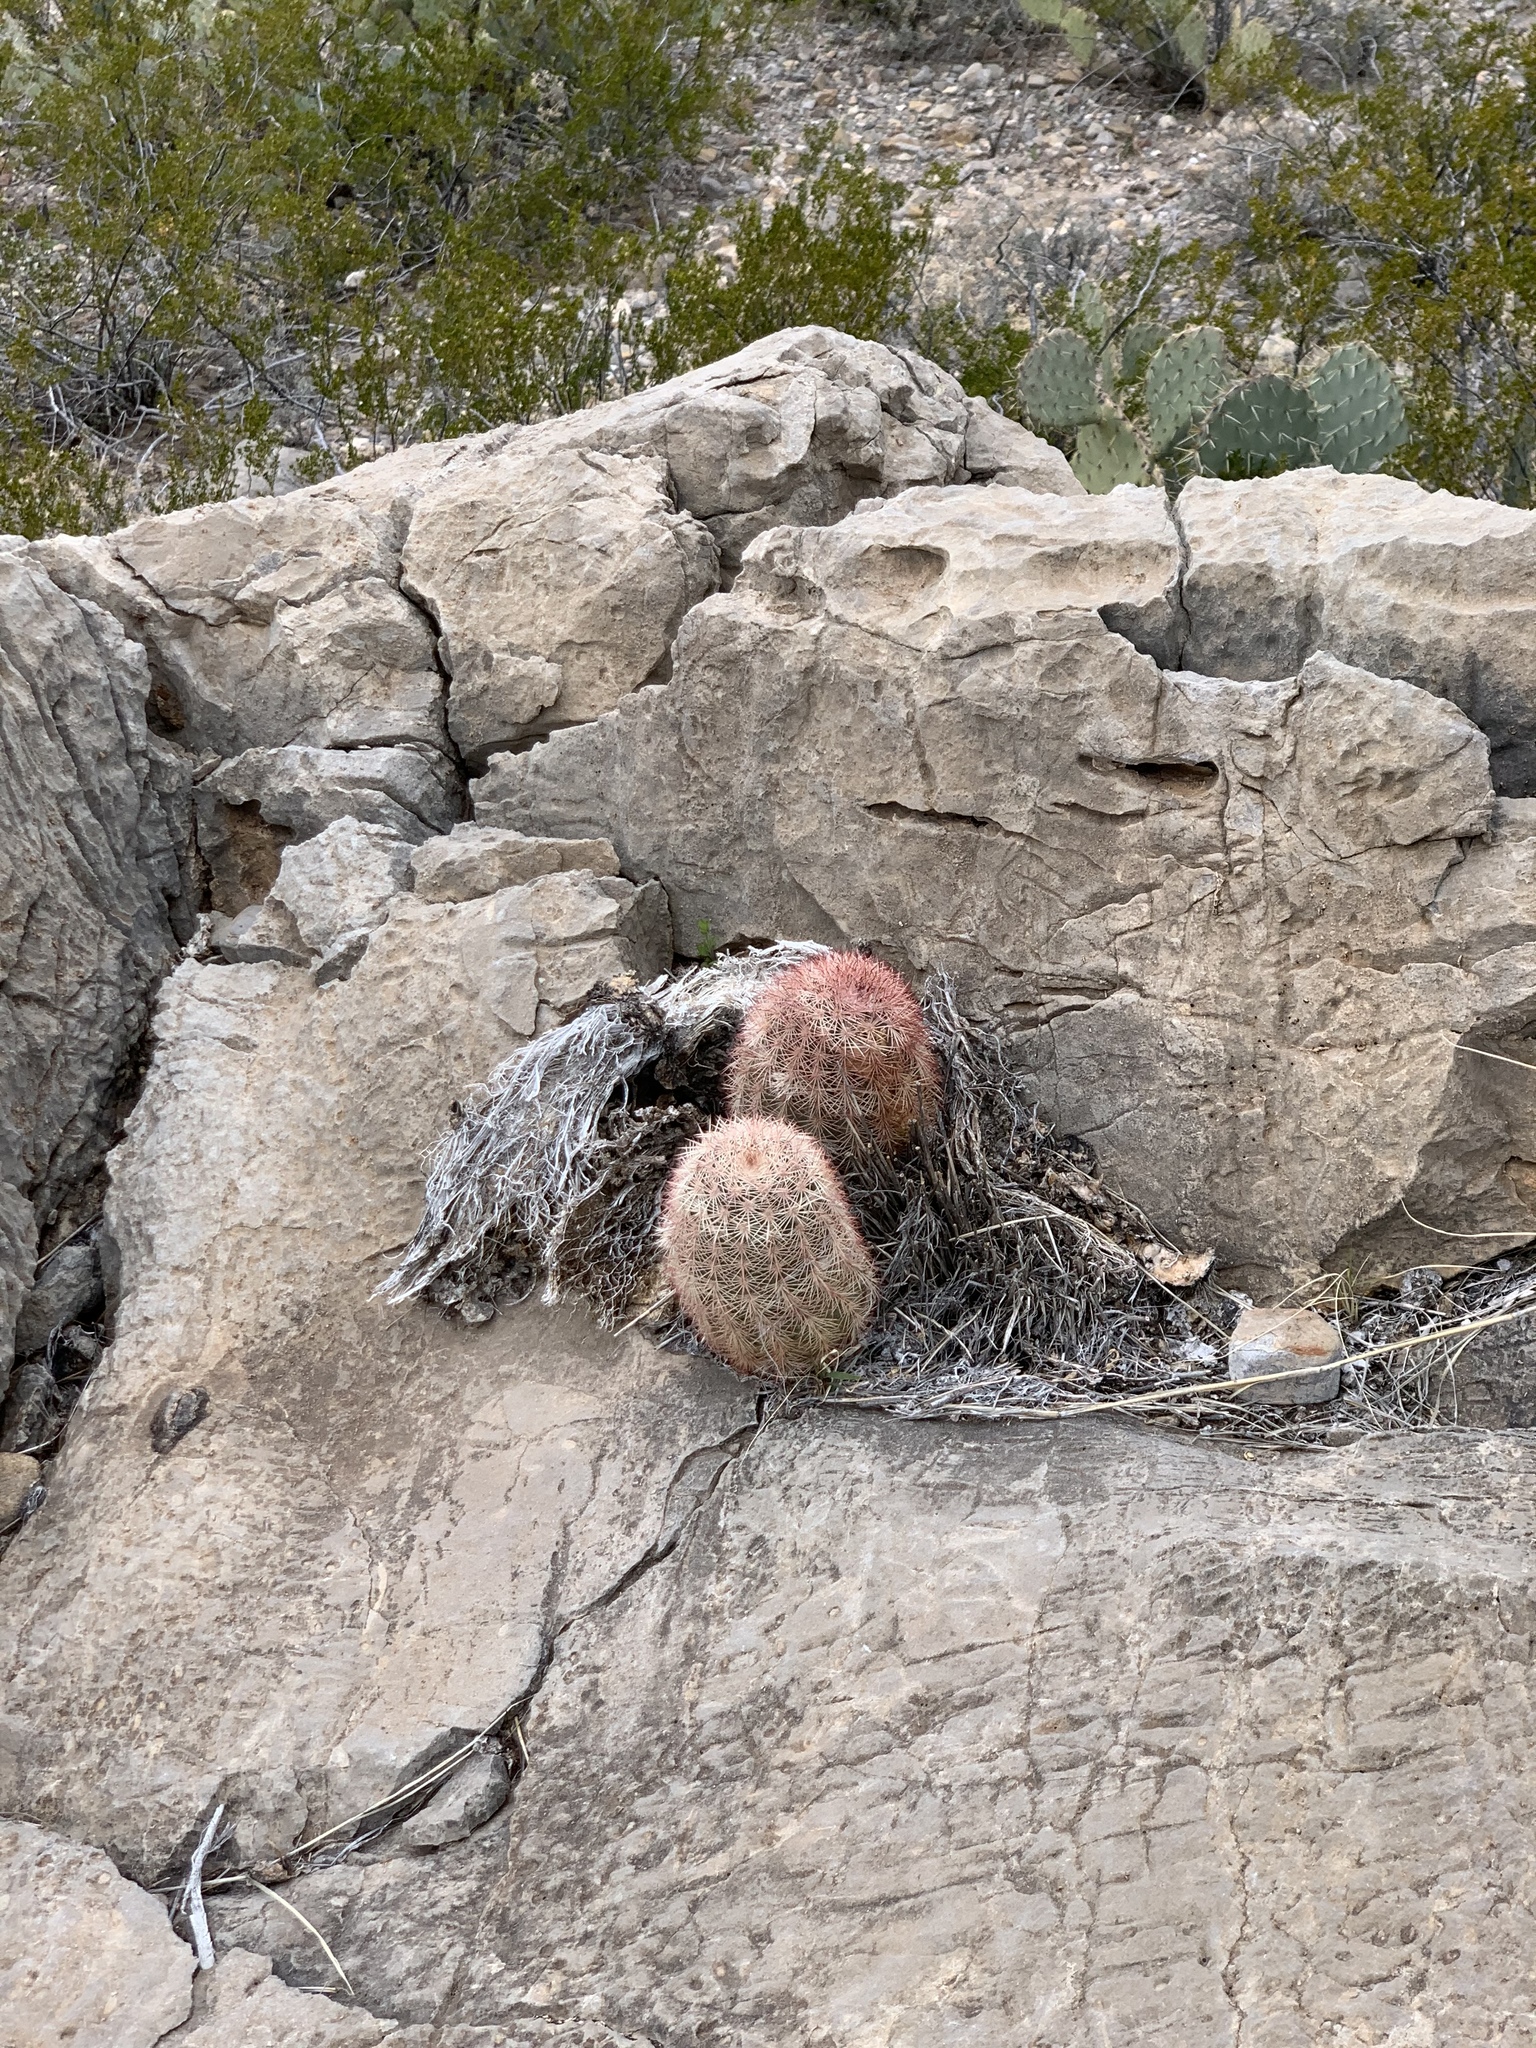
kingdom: Plantae
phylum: Tracheophyta
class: Magnoliopsida
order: Caryophyllales
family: Cactaceae
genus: Echinocereus
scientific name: Echinocereus dasyacanthus
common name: Spiny hedgehog cactus
